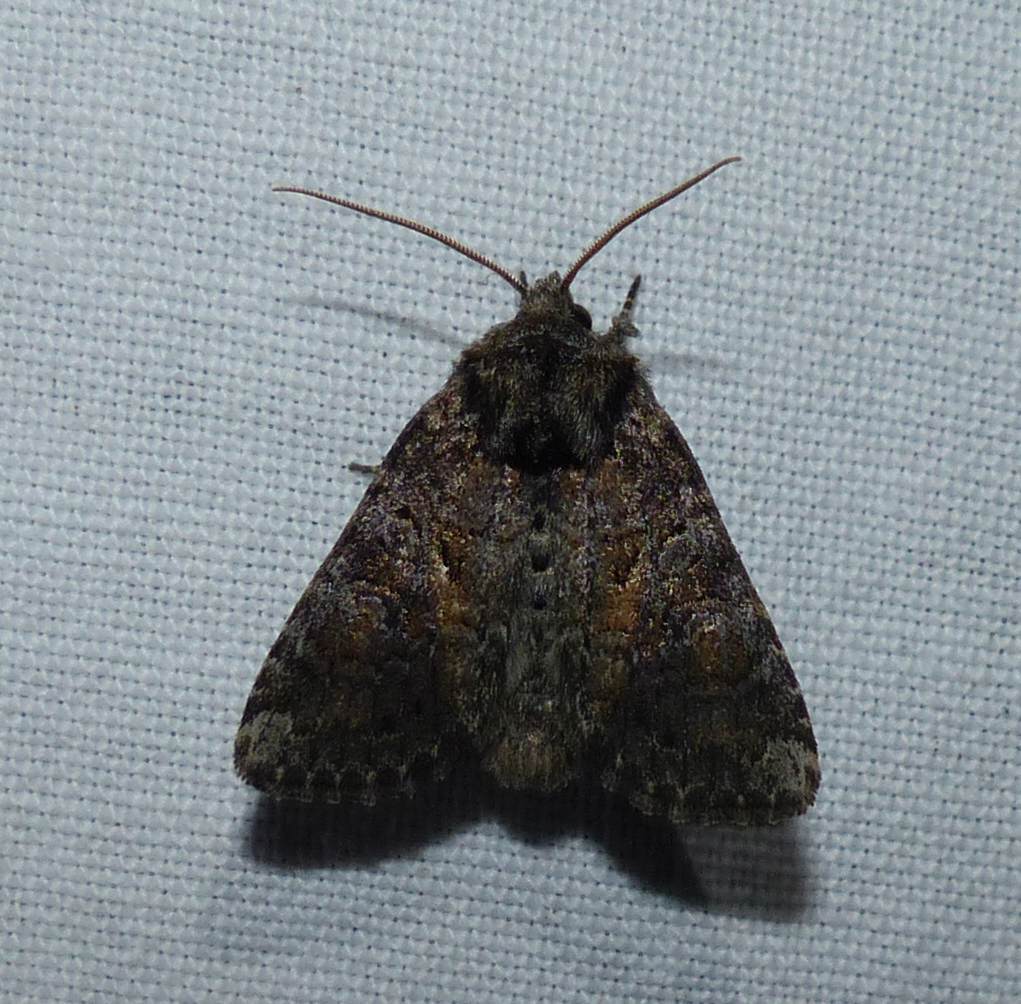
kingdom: Animalia
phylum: Arthropoda
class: Insecta
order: Lepidoptera
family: Noctuidae
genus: Orthodes
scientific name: Orthodes detracta
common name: Disparaged arches moth
